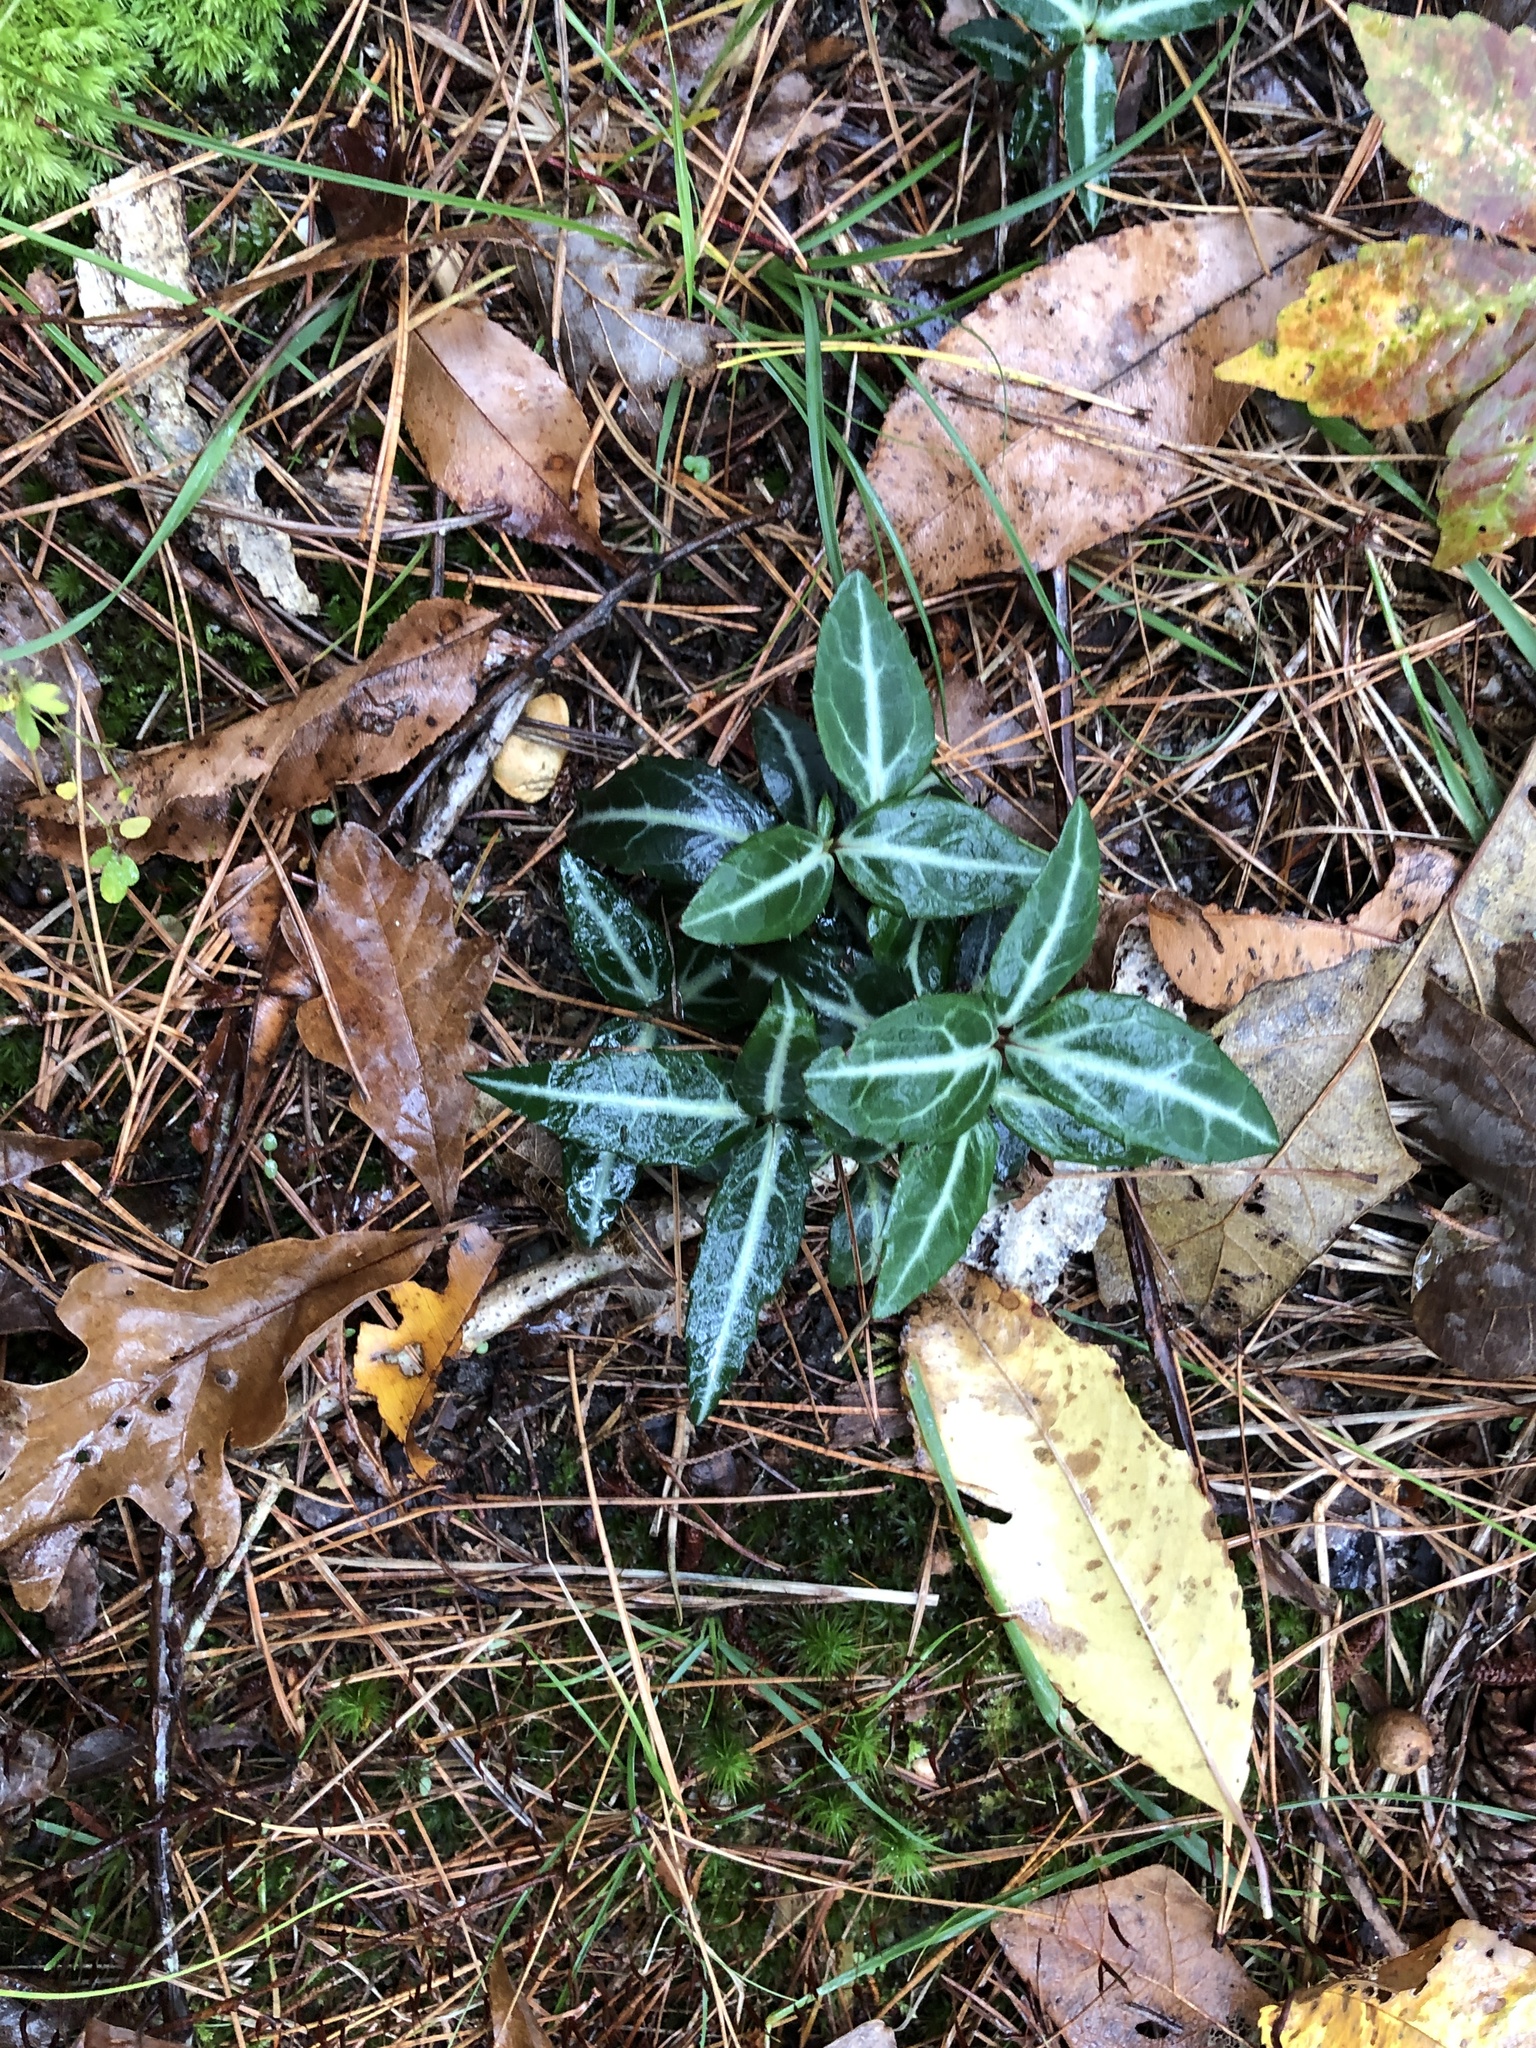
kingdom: Plantae
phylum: Tracheophyta
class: Magnoliopsida
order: Ericales
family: Ericaceae
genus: Chimaphila
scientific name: Chimaphila maculata
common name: Spotted pipsissewa
